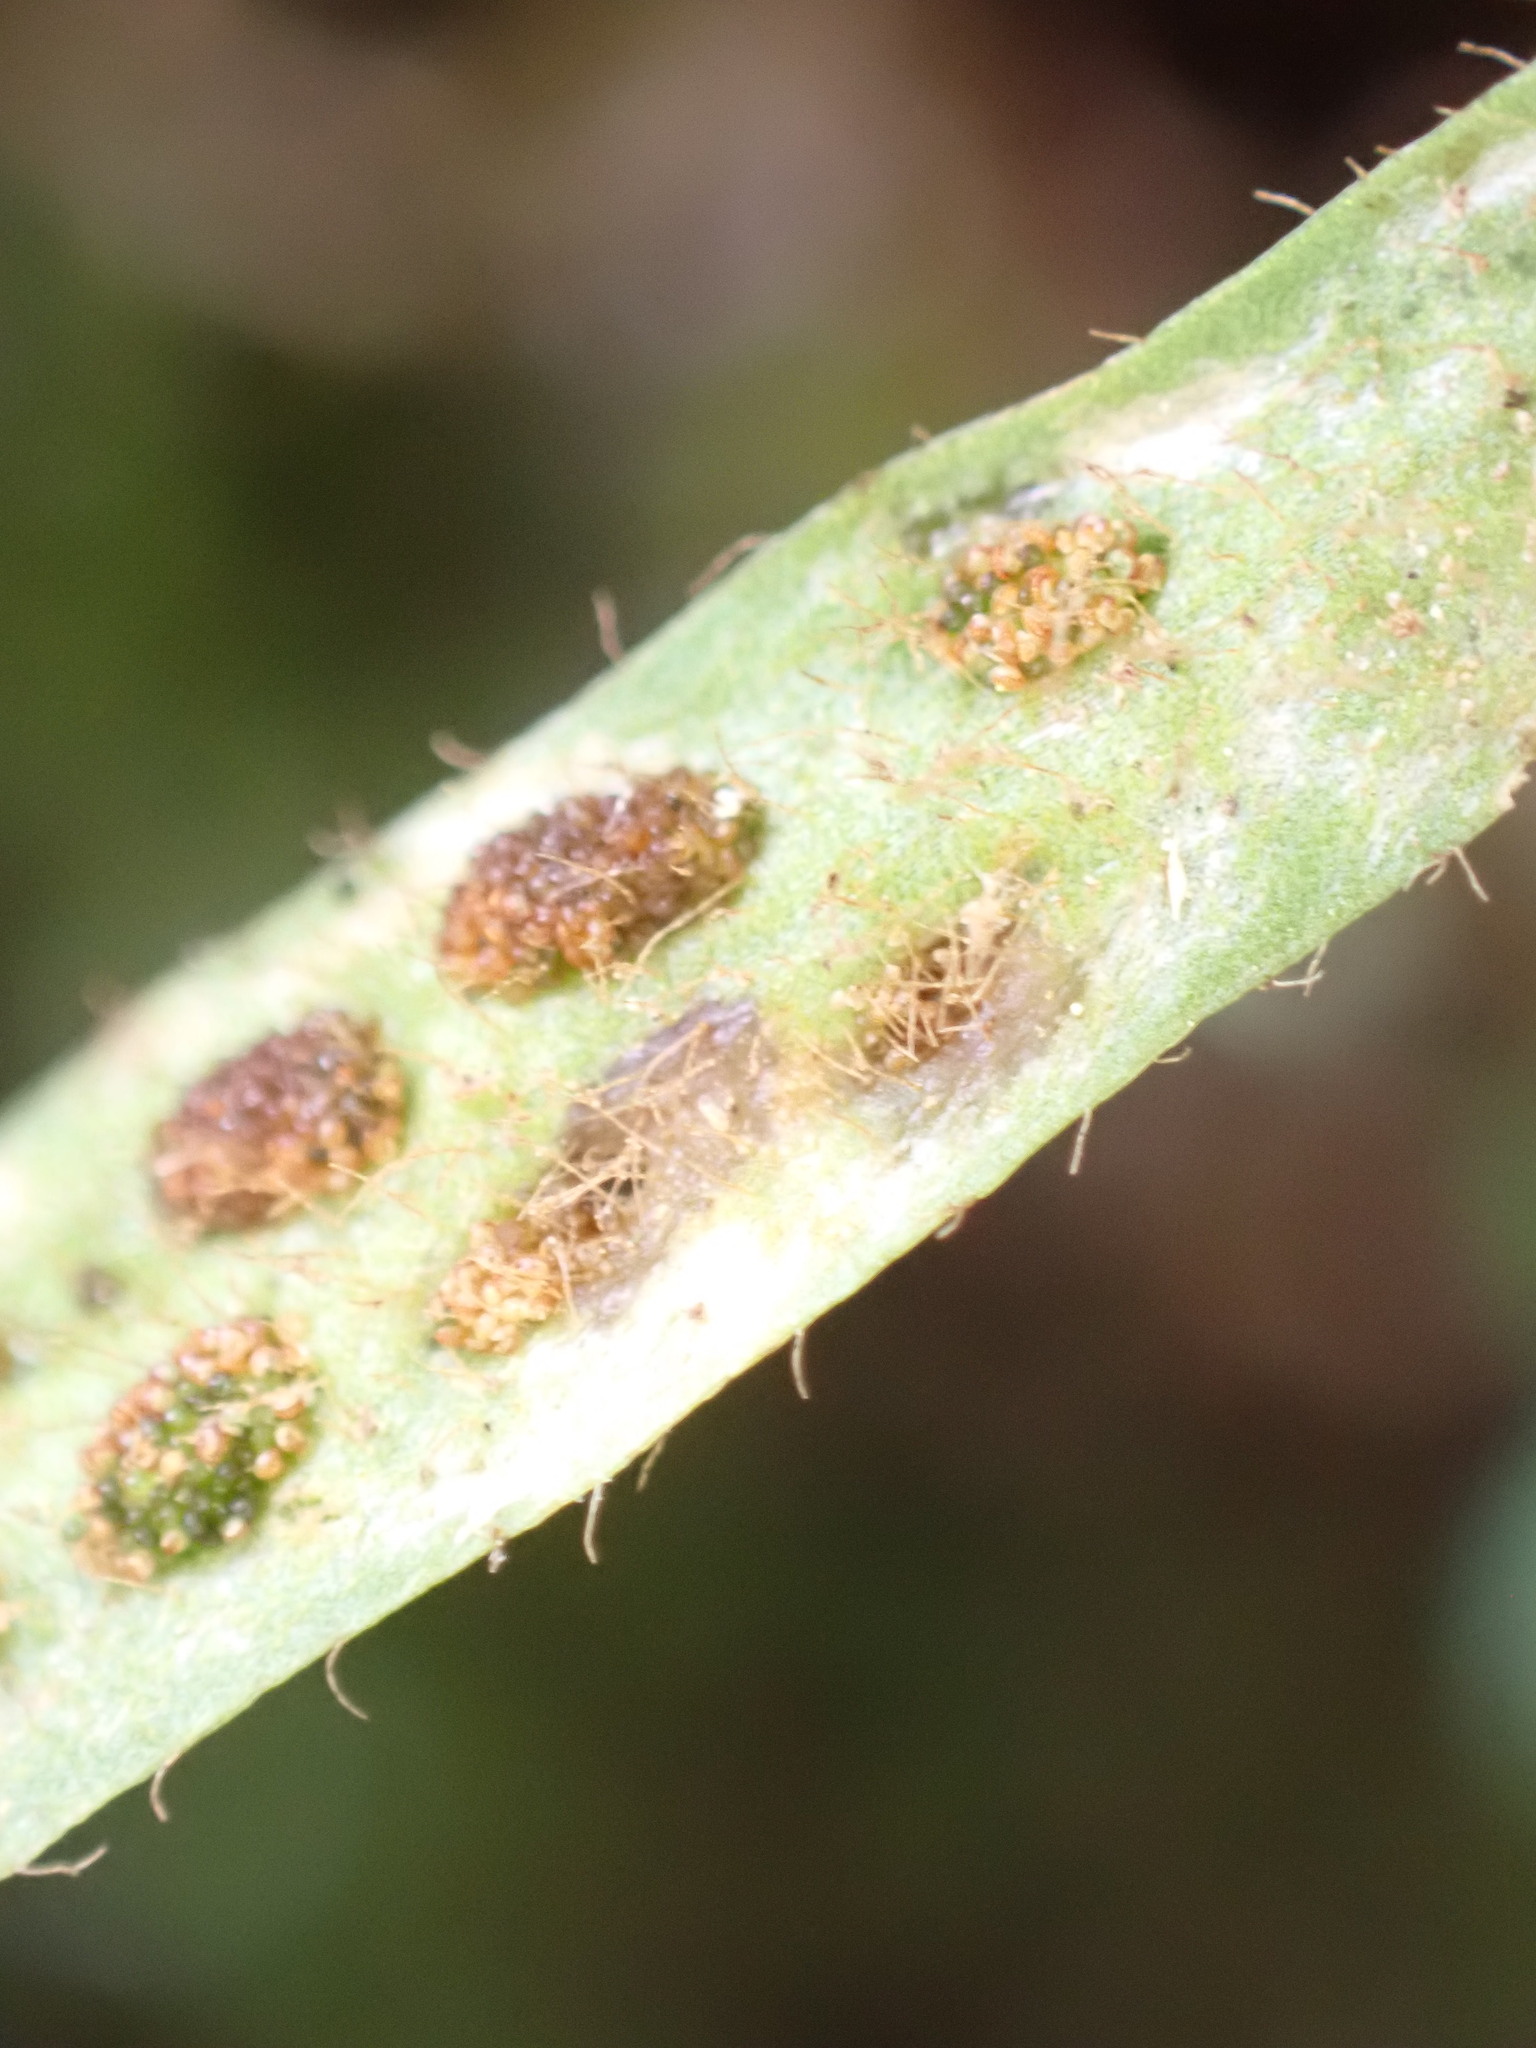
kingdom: Plantae
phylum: Tracheophyta
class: Polypodiopsida
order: Polypodiales
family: Polypodiaceae
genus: Notogrammitis
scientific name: Notogrammitis ciliata
